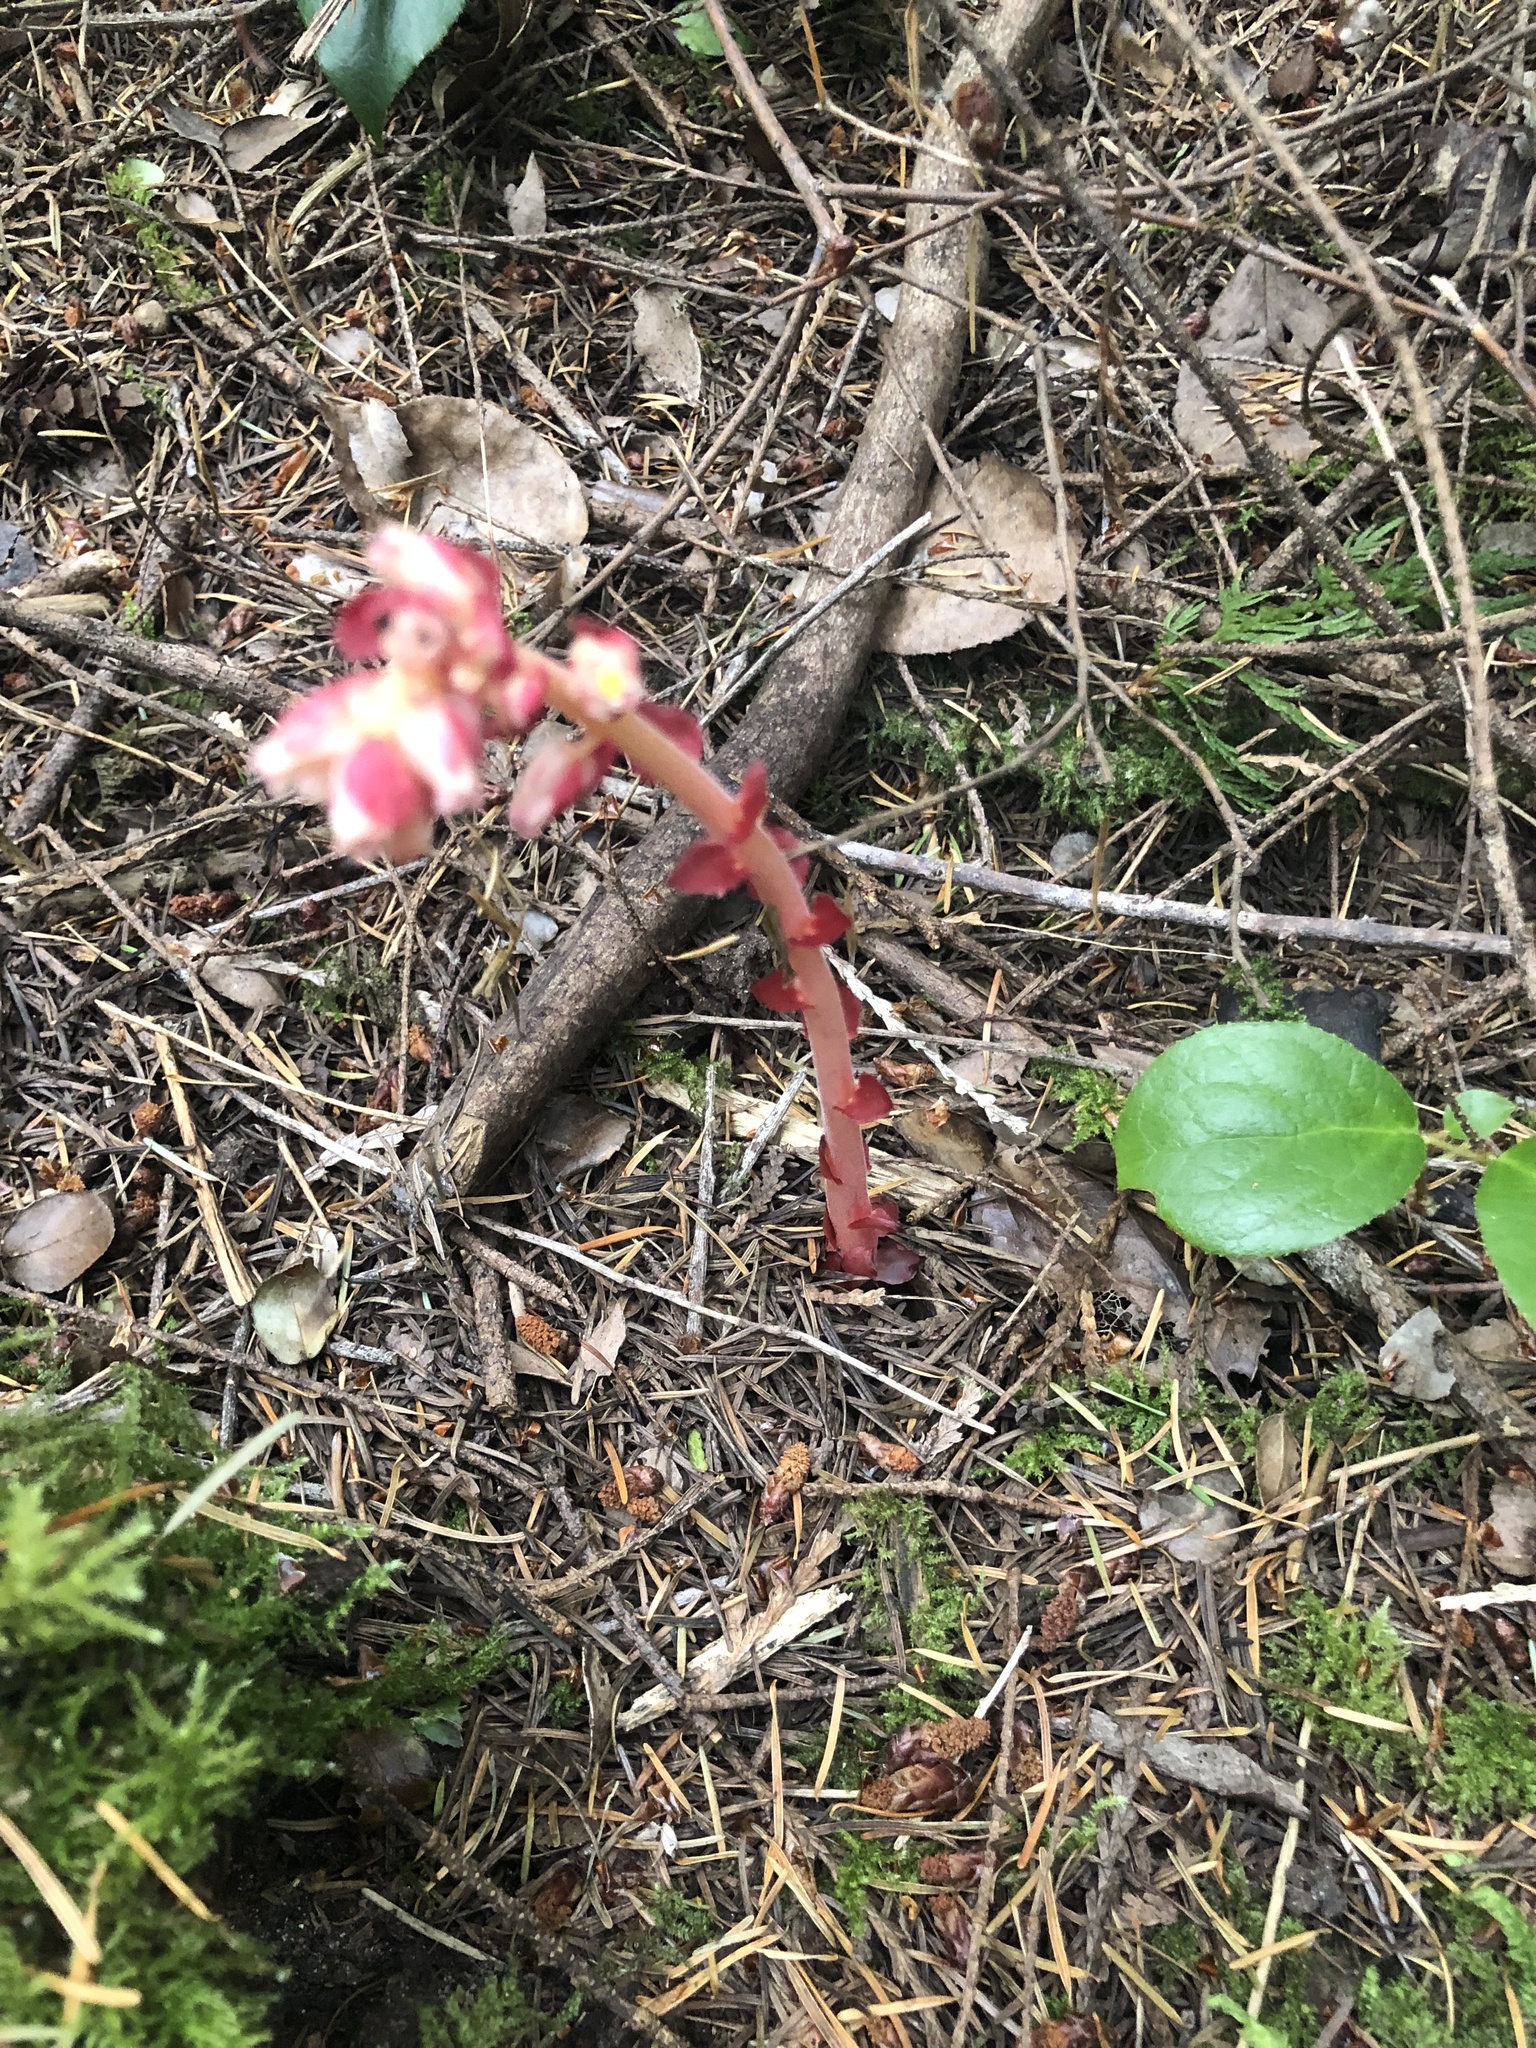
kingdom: Plantae
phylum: Tracheophyta
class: Magnoliopsida
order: Ericales
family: Ericaceae
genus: Hypopitys
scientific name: Hypopitys monotropa
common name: Yellow bird's-nest
